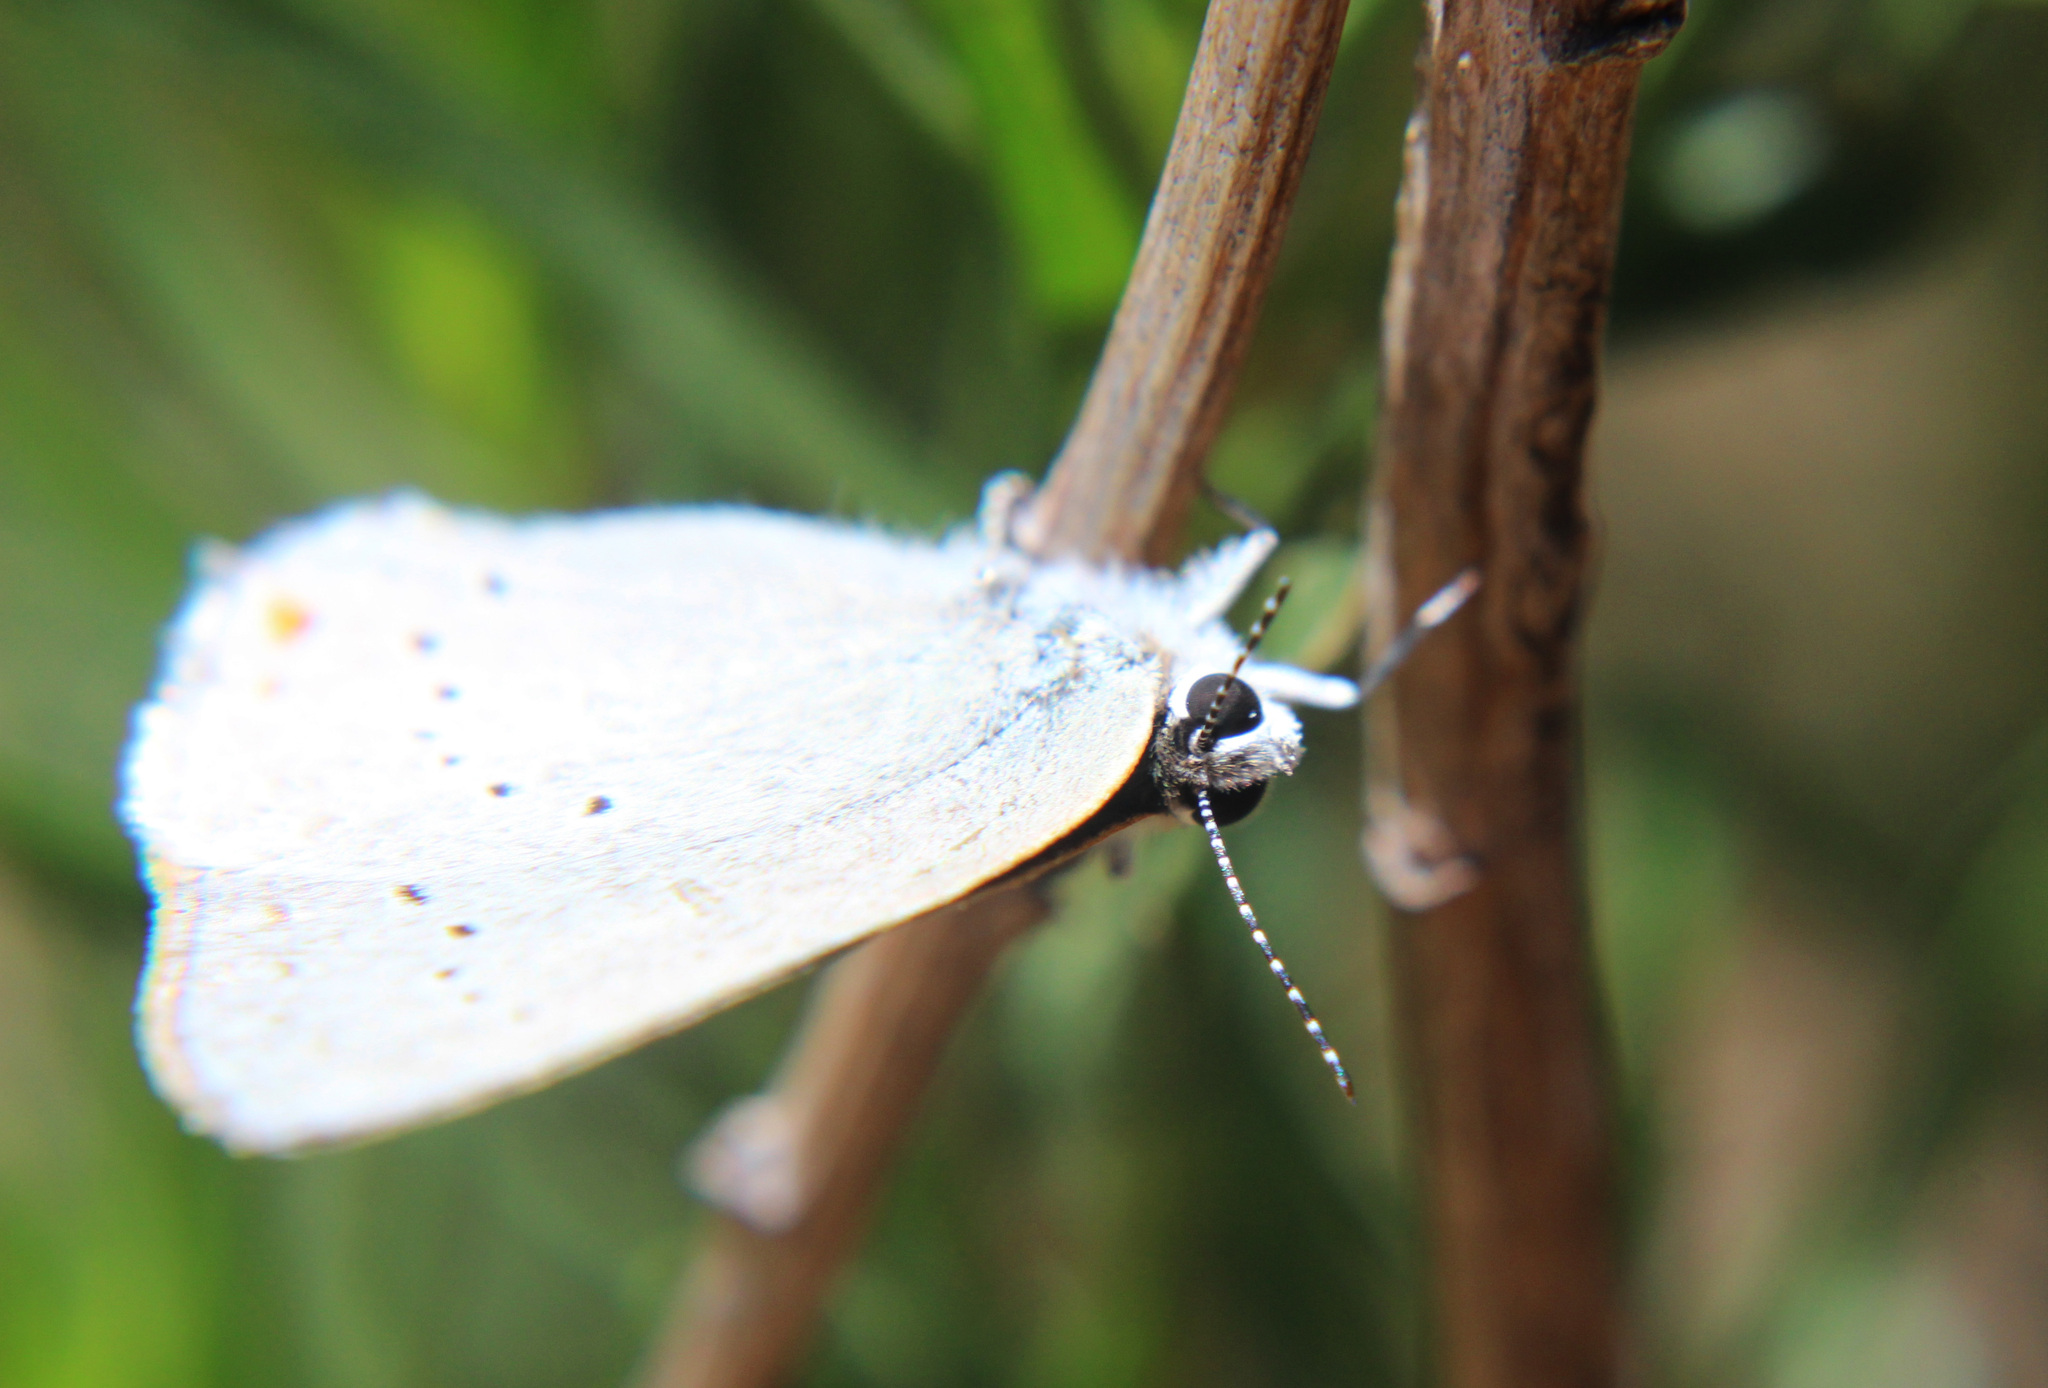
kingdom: Animalia
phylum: Arthropoda
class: Insecta
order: Lepidoptera
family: Lycaenidae
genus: Strymon
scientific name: Strymon sylvinus
